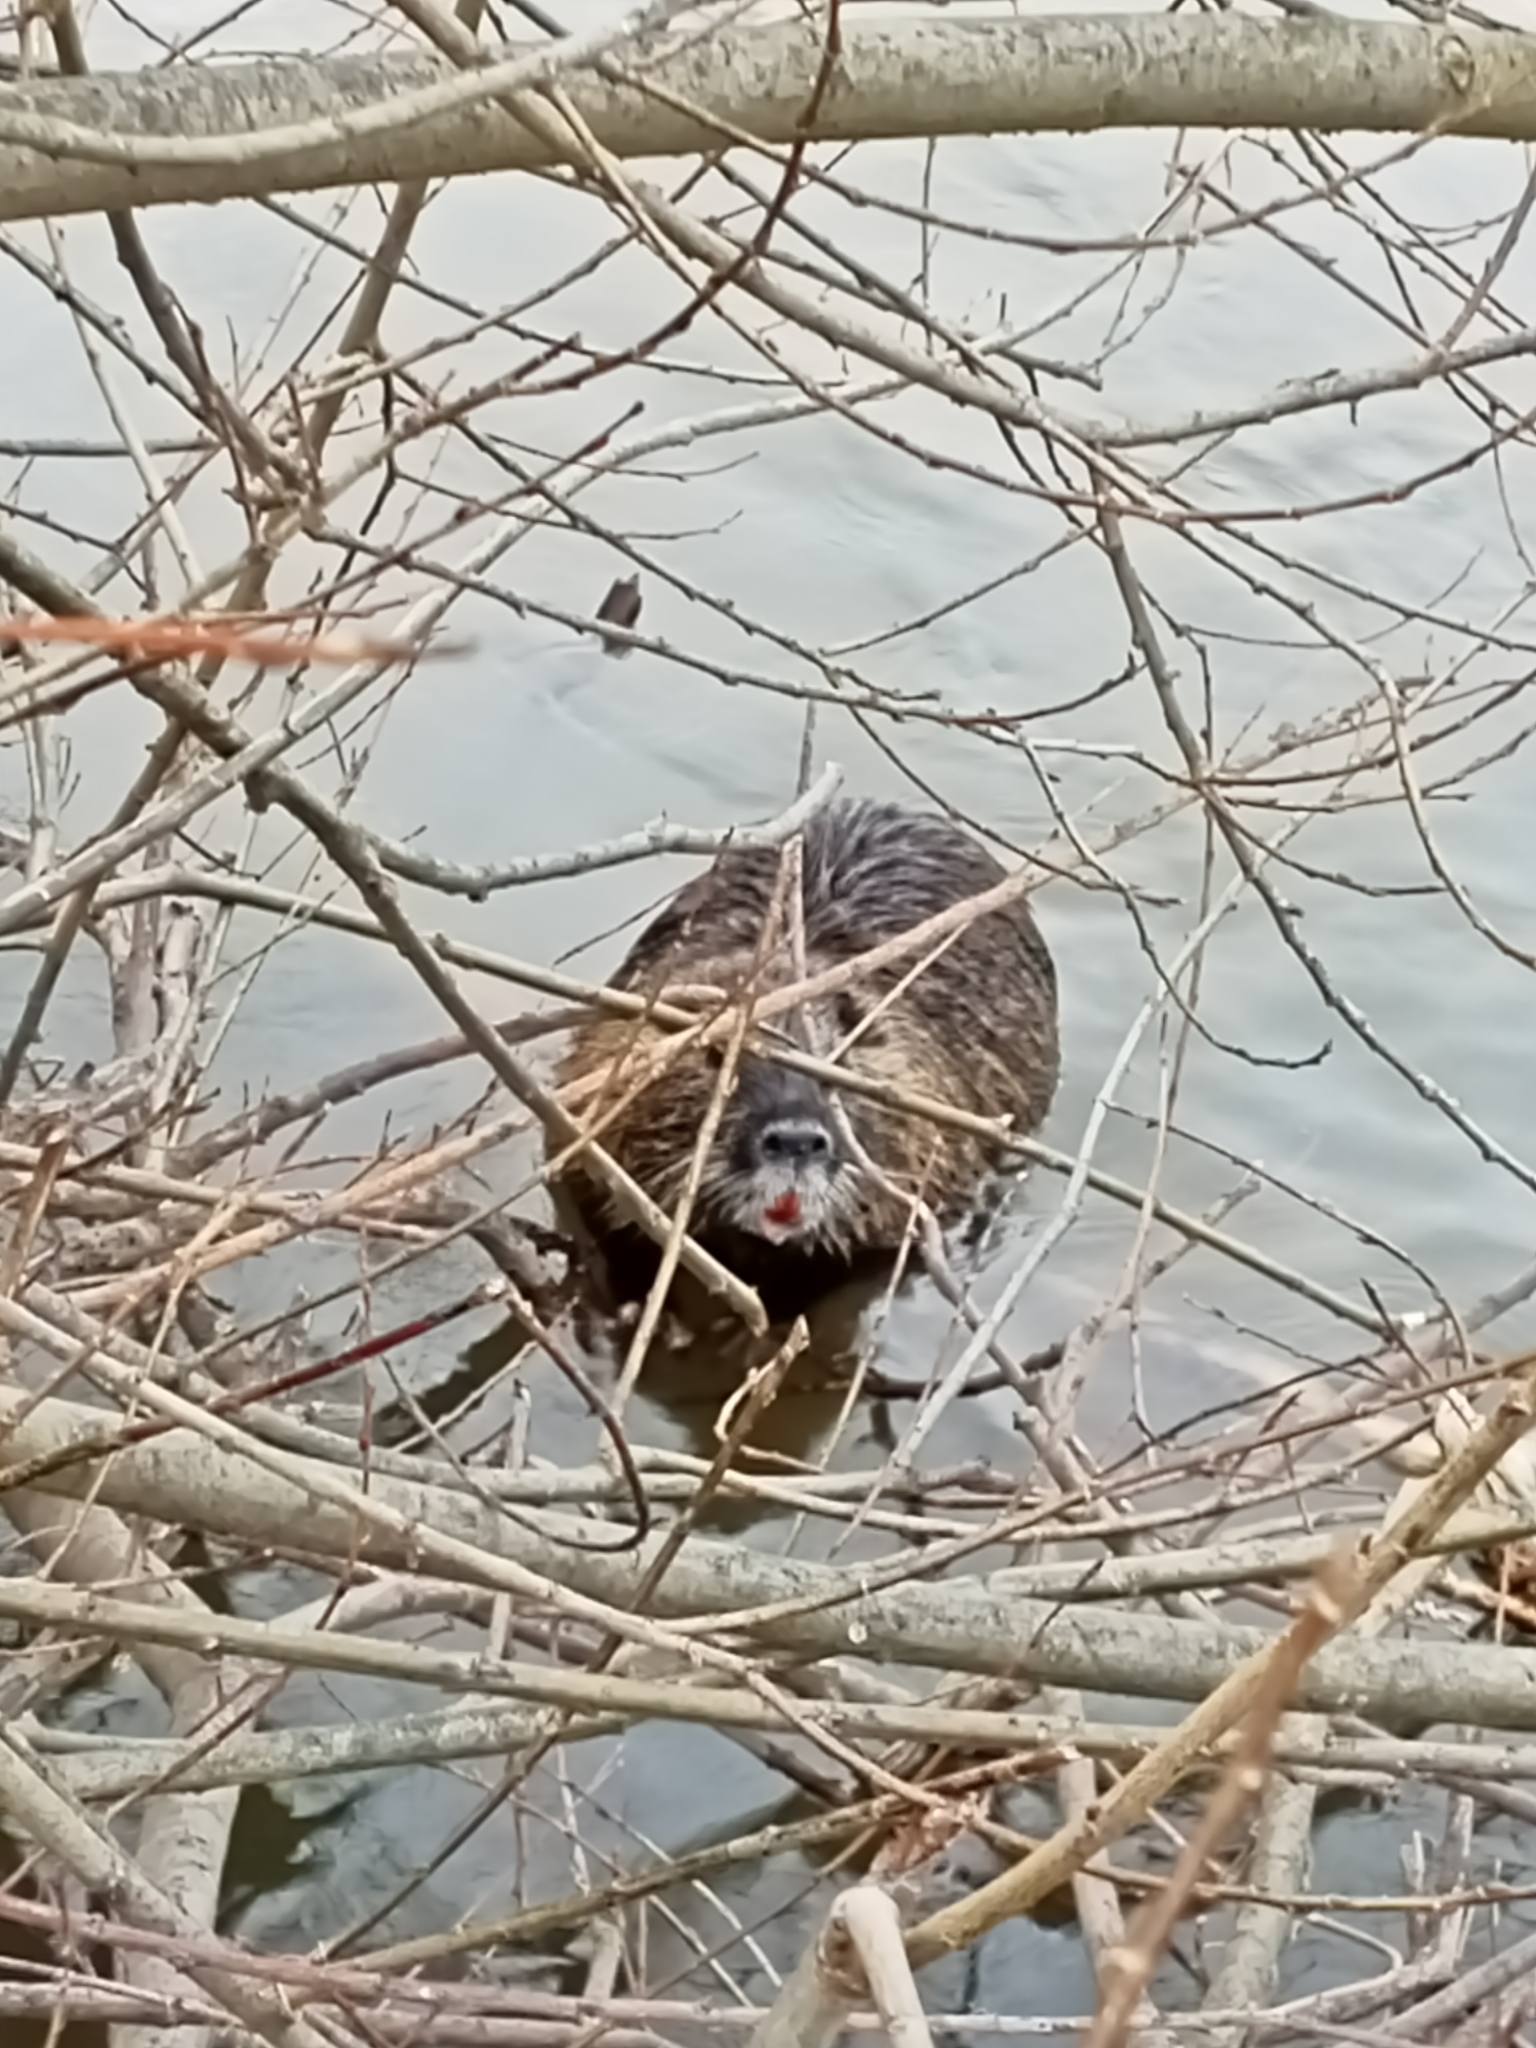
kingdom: Animalia
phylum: Chordata
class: Mammalia
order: Rodentia
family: Myocastoridae
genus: Myocastor
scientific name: Myocastor coypus
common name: Coypu
